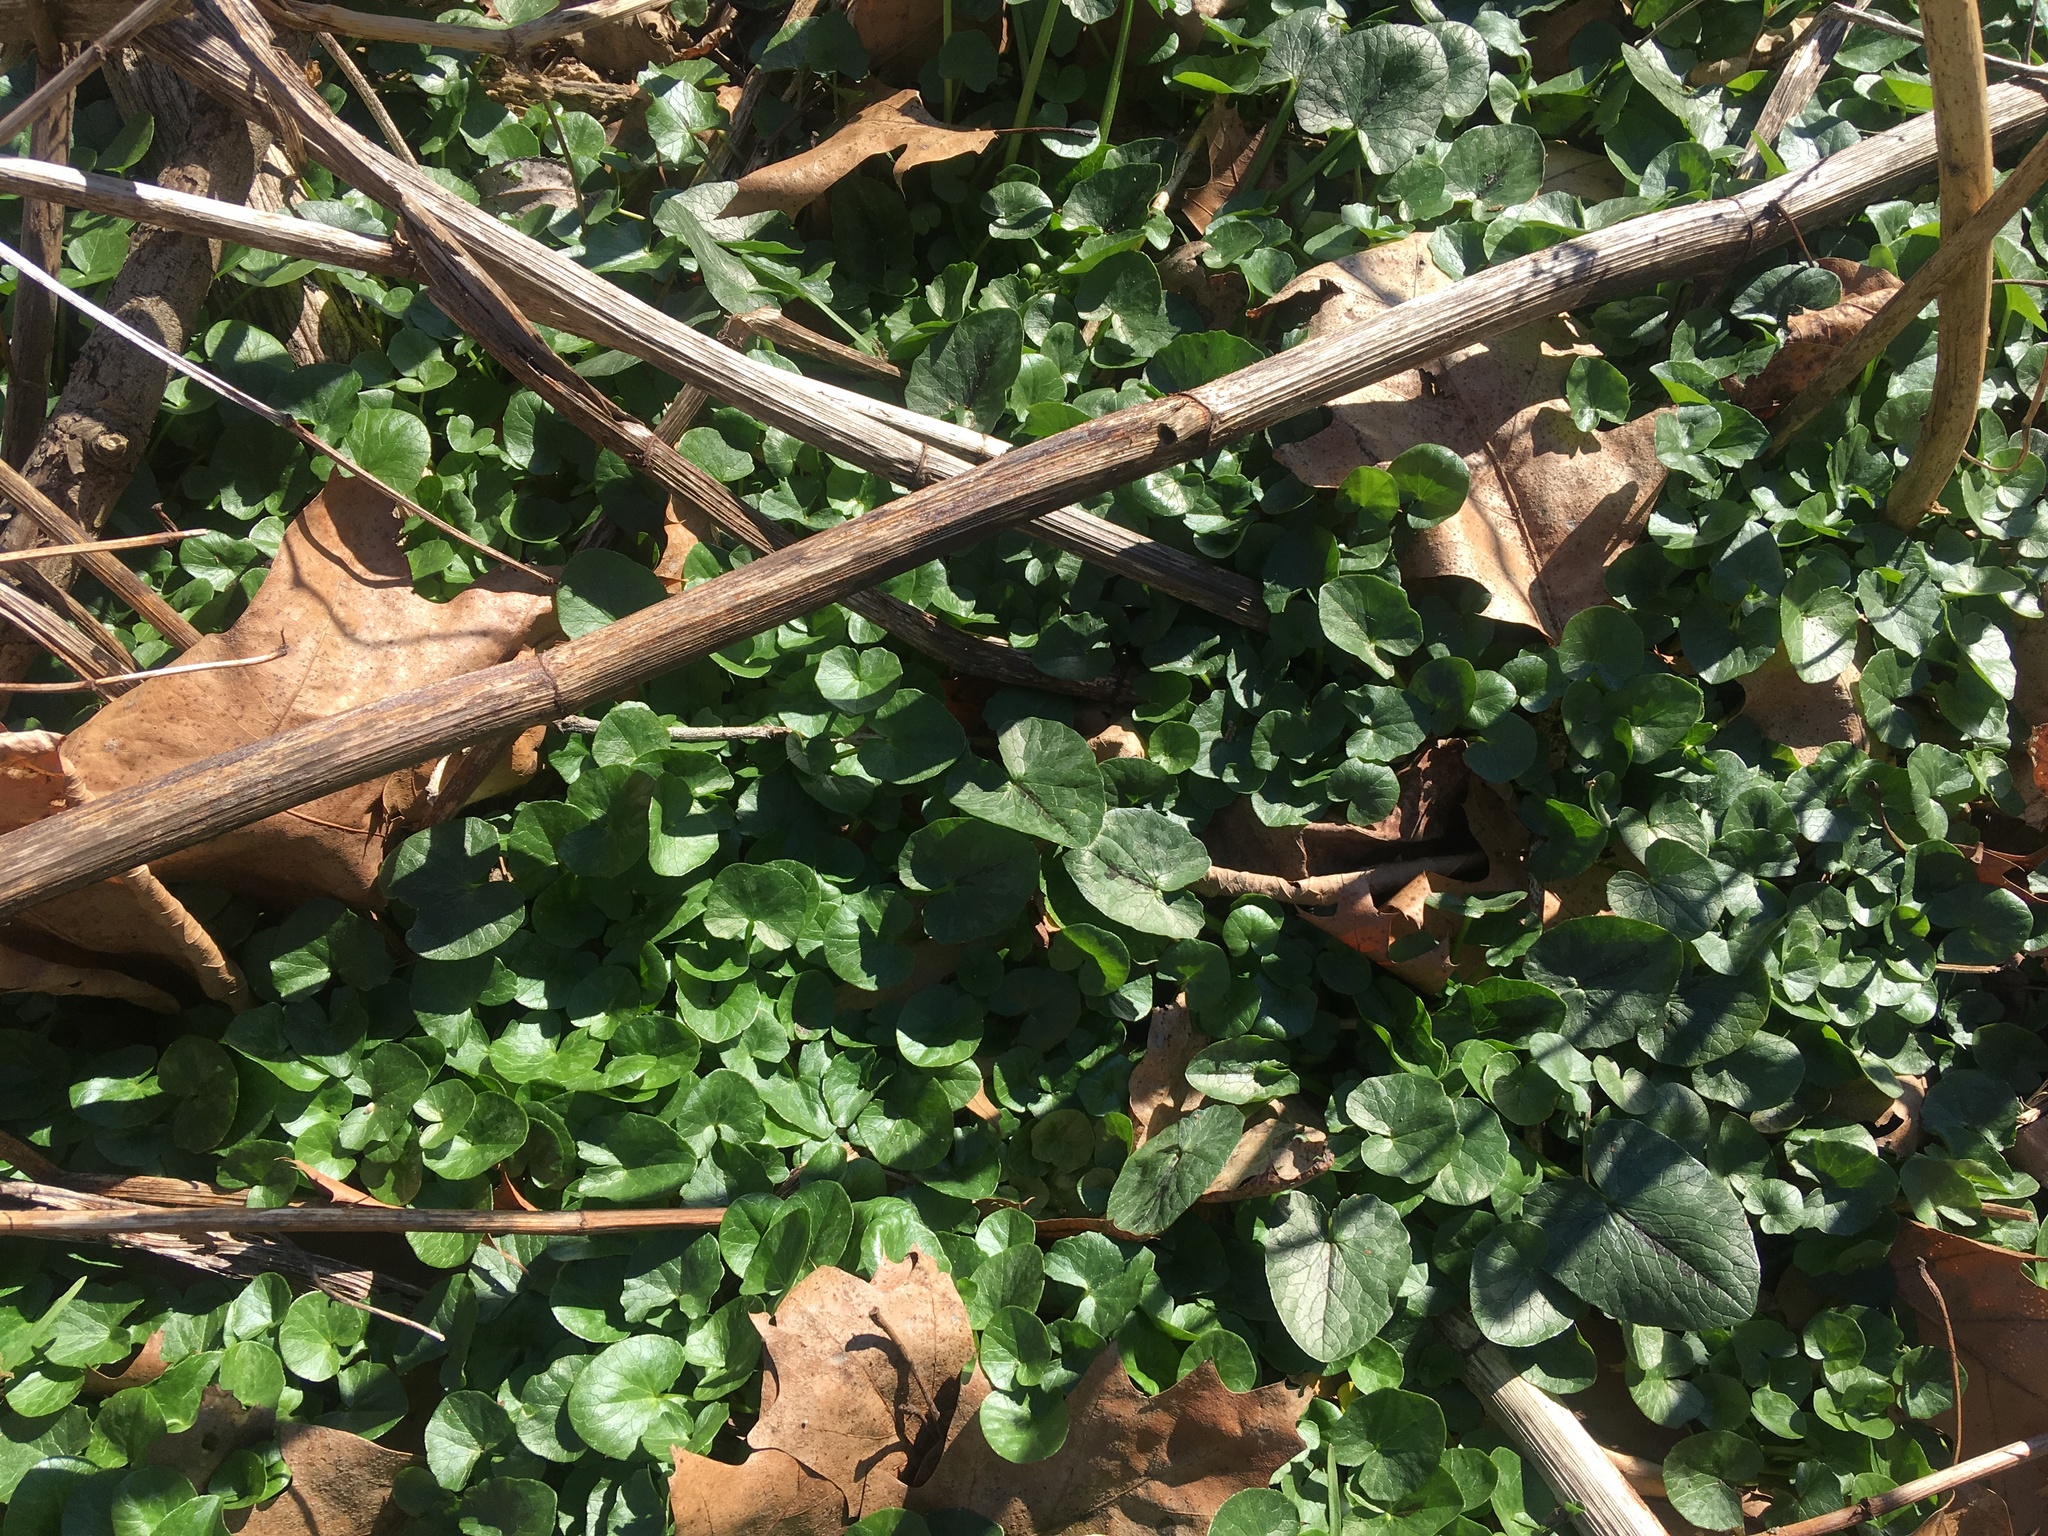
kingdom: Plantae
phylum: Tracheophyta
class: Magnoliopsida
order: Ranunculales
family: Ranunculaceae
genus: Ficaria
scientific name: Ficaria verna
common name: Lesser celandine
